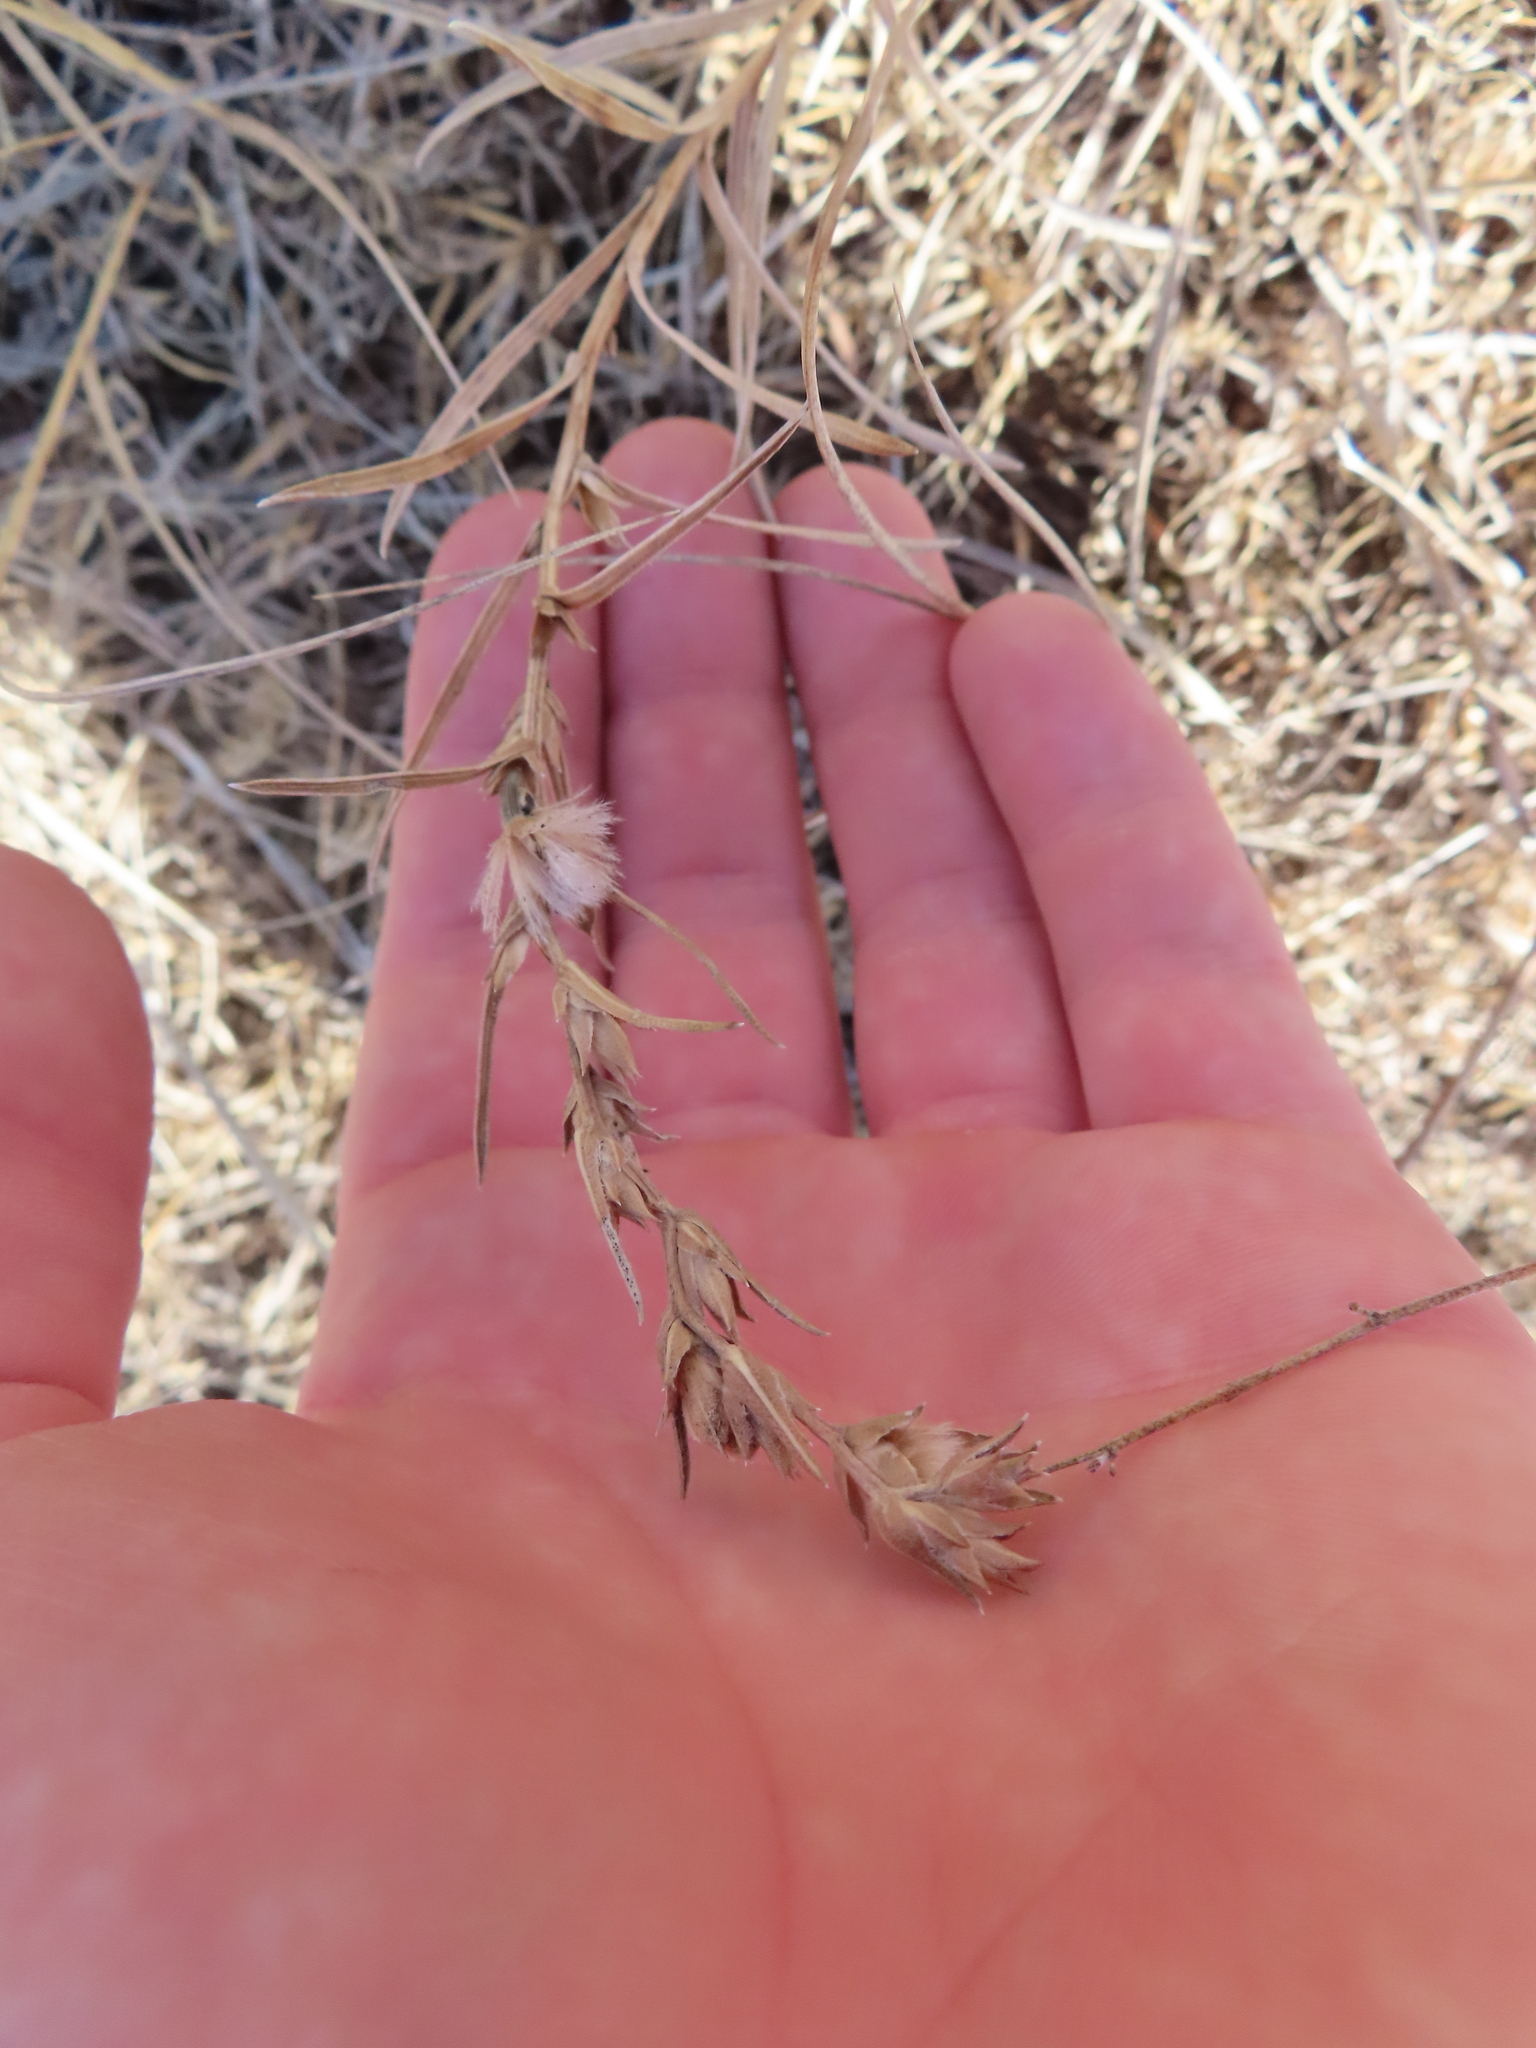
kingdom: Plantae
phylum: Tracheophyta
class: Magnoliopsida
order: Asterales
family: Asteraceae
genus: Liatris
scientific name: Liatris punctata
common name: Dotted gayfeather
